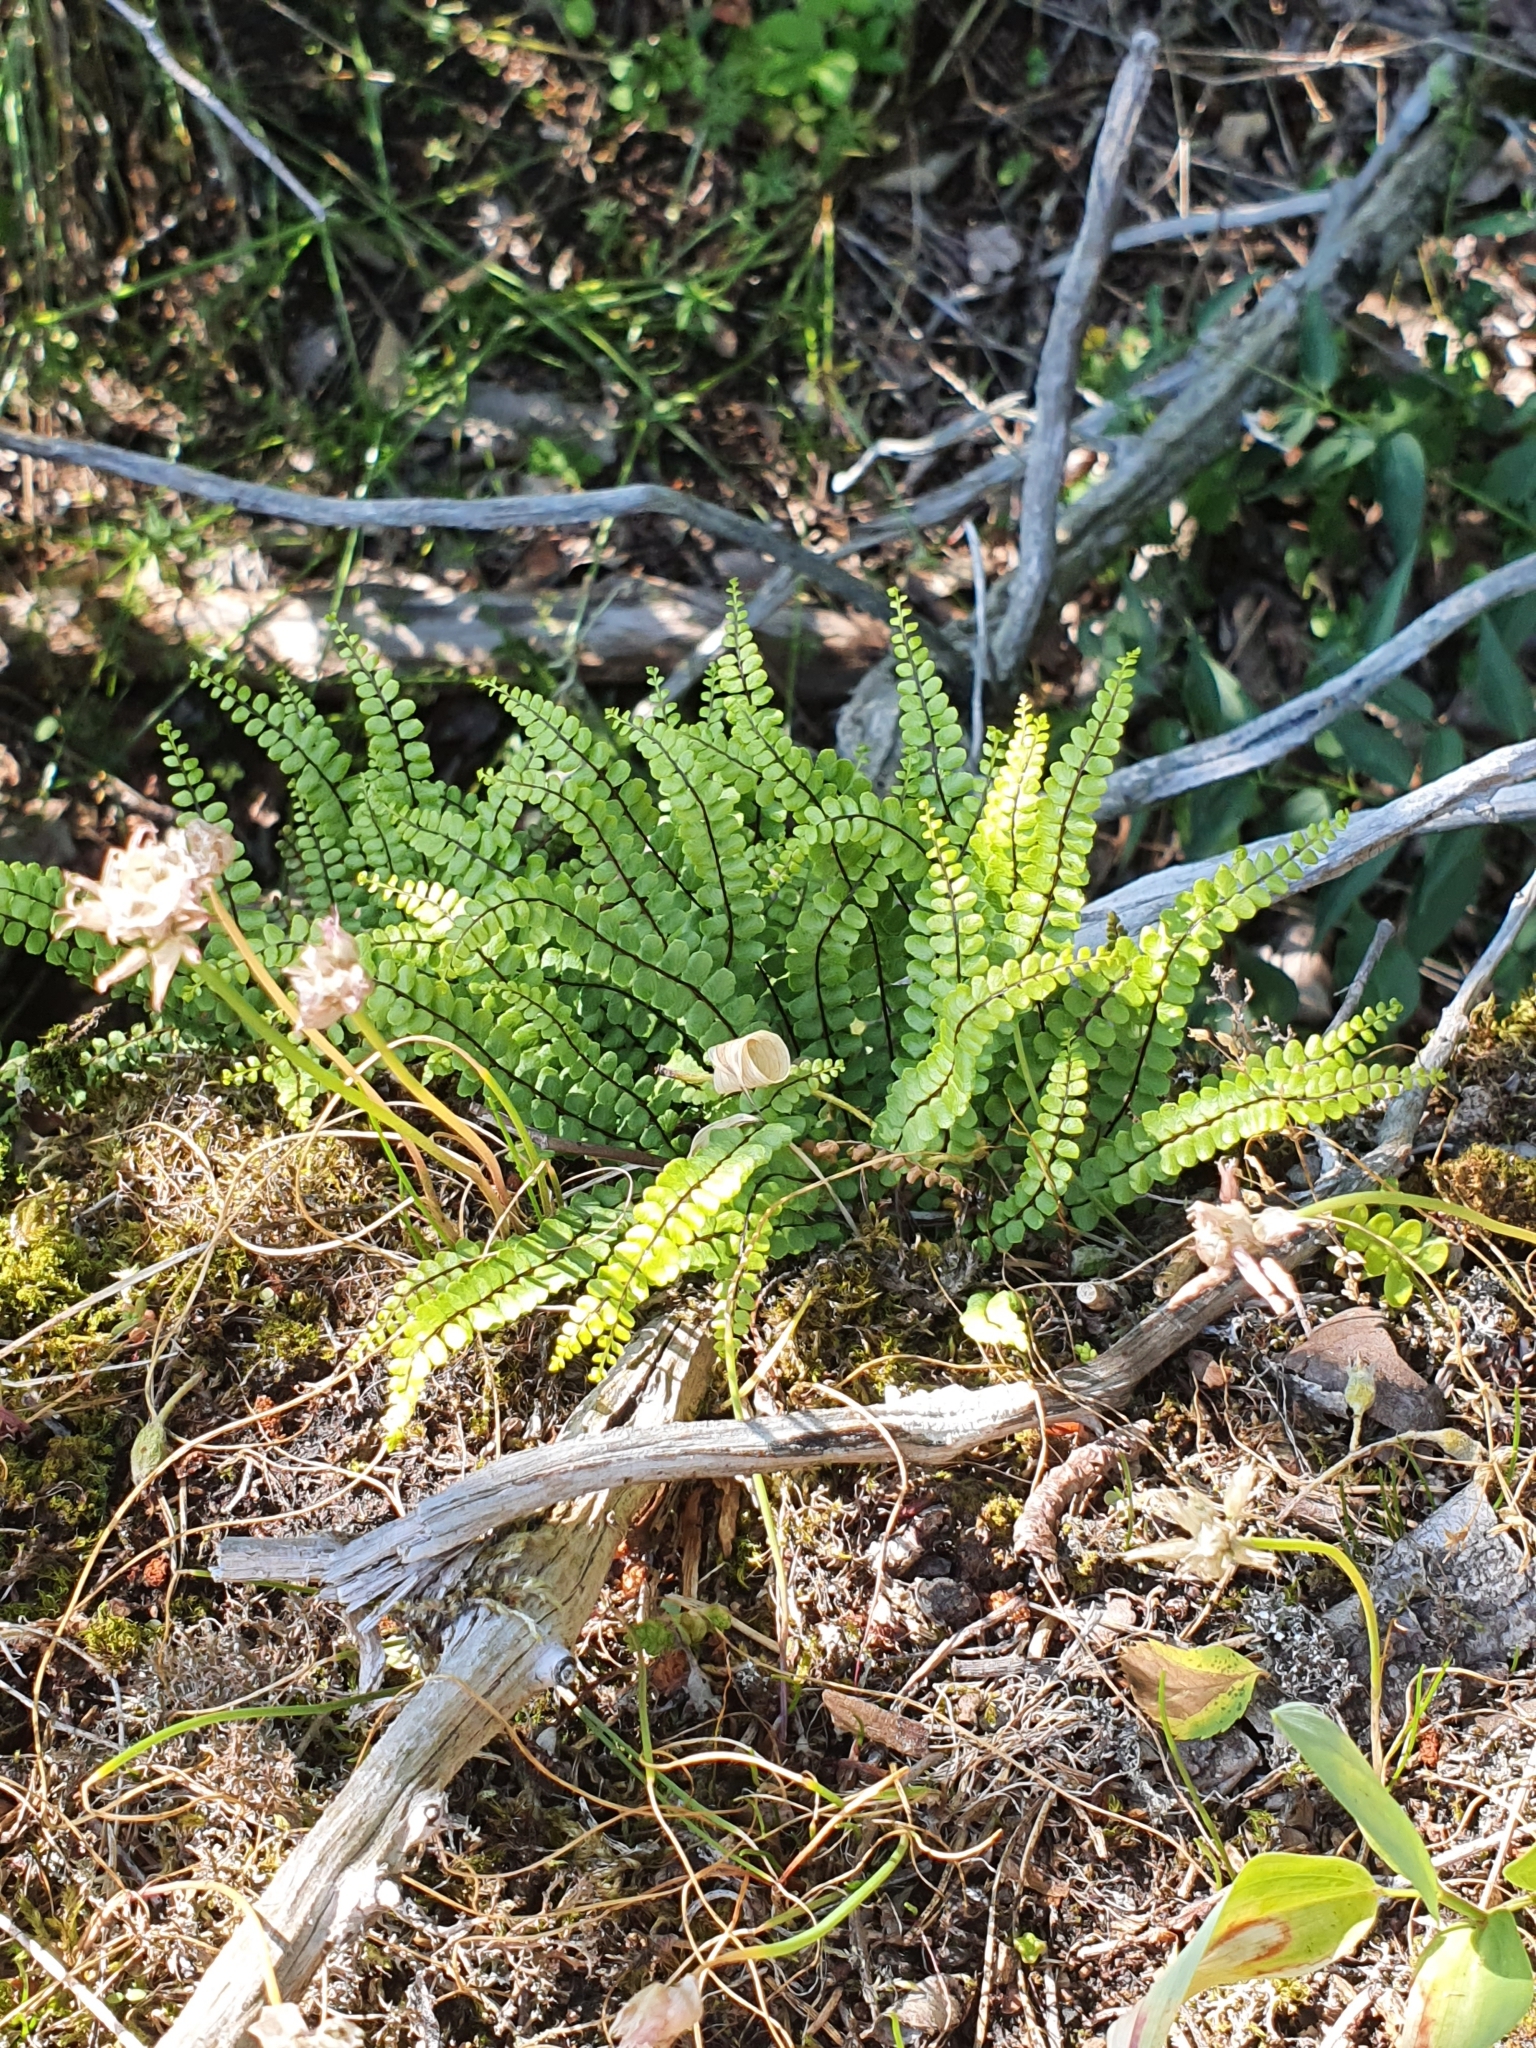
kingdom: Plantae
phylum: Tracheophyta
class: Polypodiopsida
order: Polypodiales
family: Aspleniaceae
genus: Asplenium
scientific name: Asplenium trichomanes
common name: Maidenhair spleenwort
